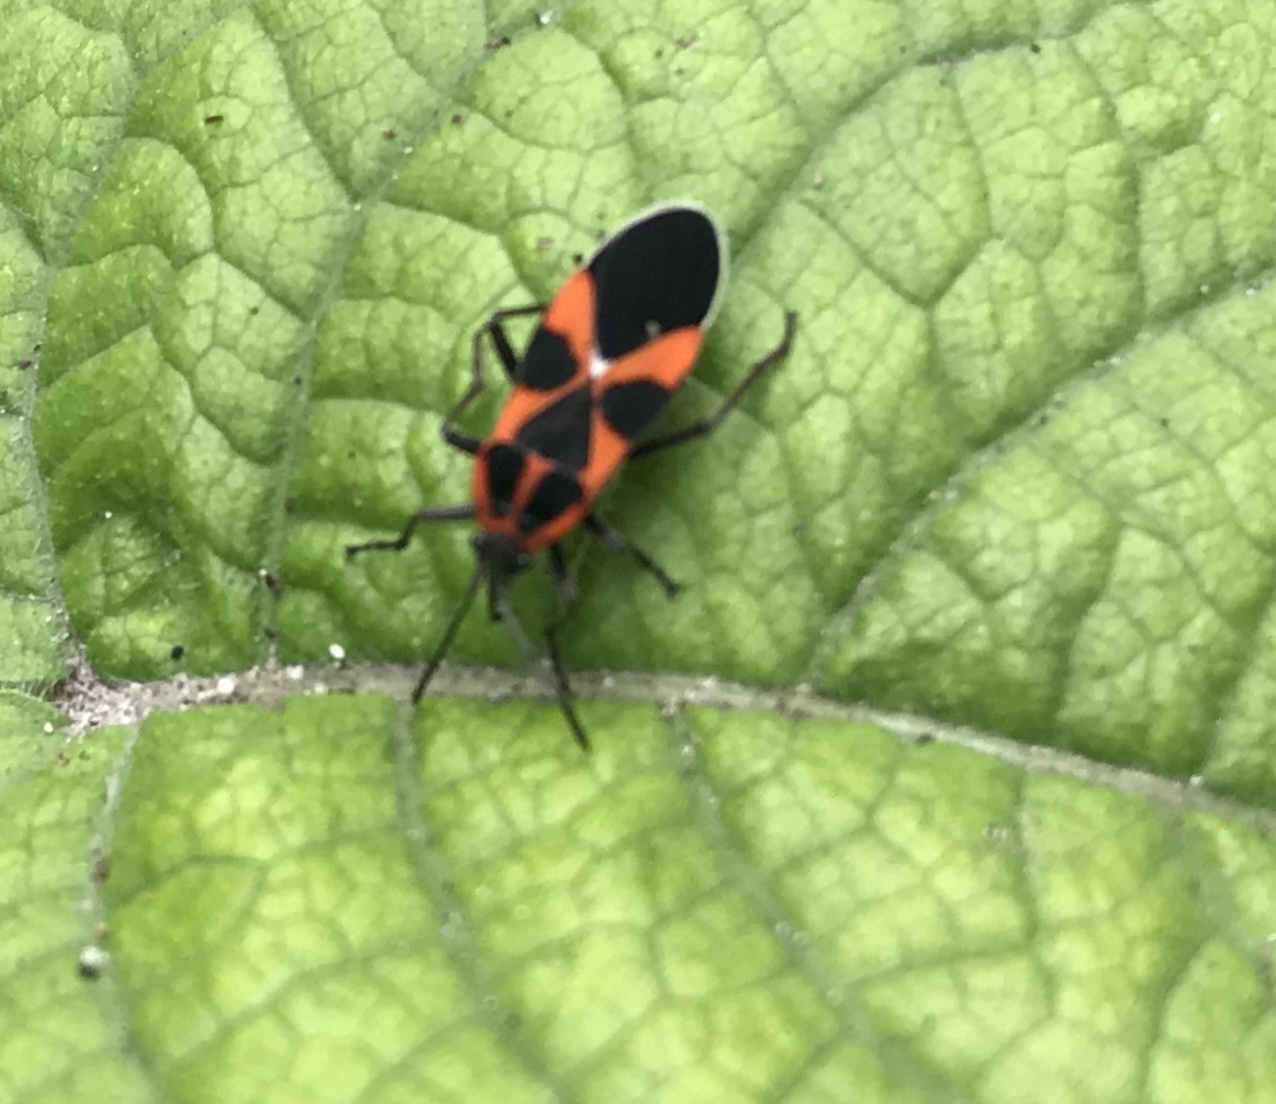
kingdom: Animalia
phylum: Arthropoda
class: Insecta
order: Hemiptera
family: Lygaeidae
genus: Tropidothorax
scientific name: Tropidothorax leucopterus
